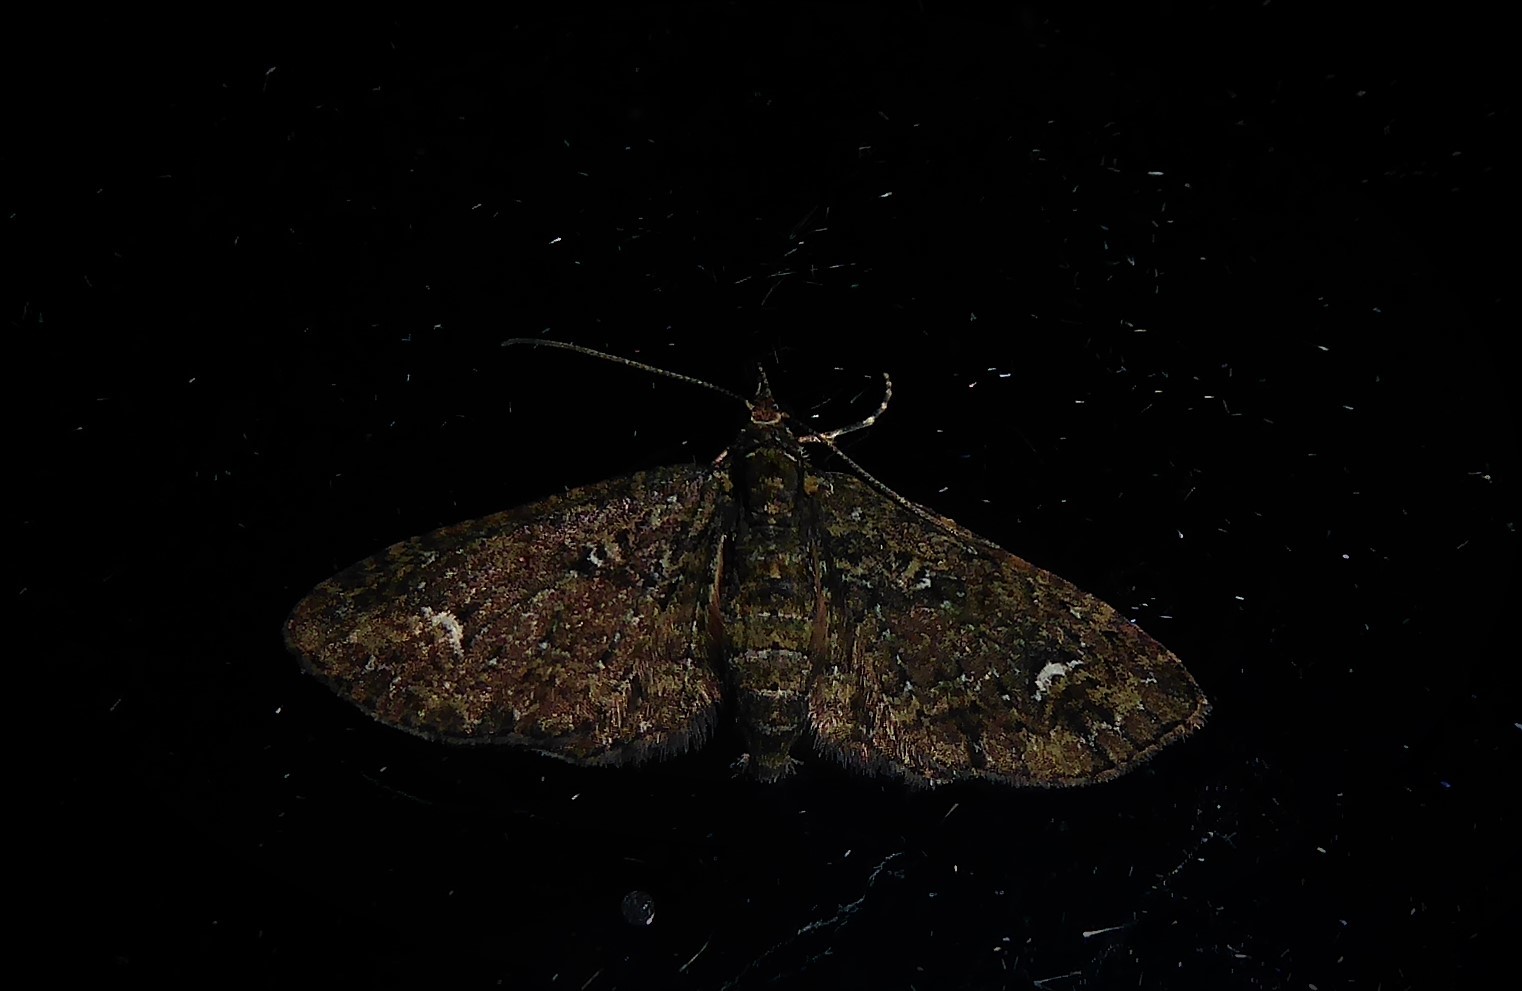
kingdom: Animalia
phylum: Arthropoda
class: Insecta
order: Lepidoptera
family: Geometridae
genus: Pasiphilodes
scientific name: Pasiphilodes testulata
